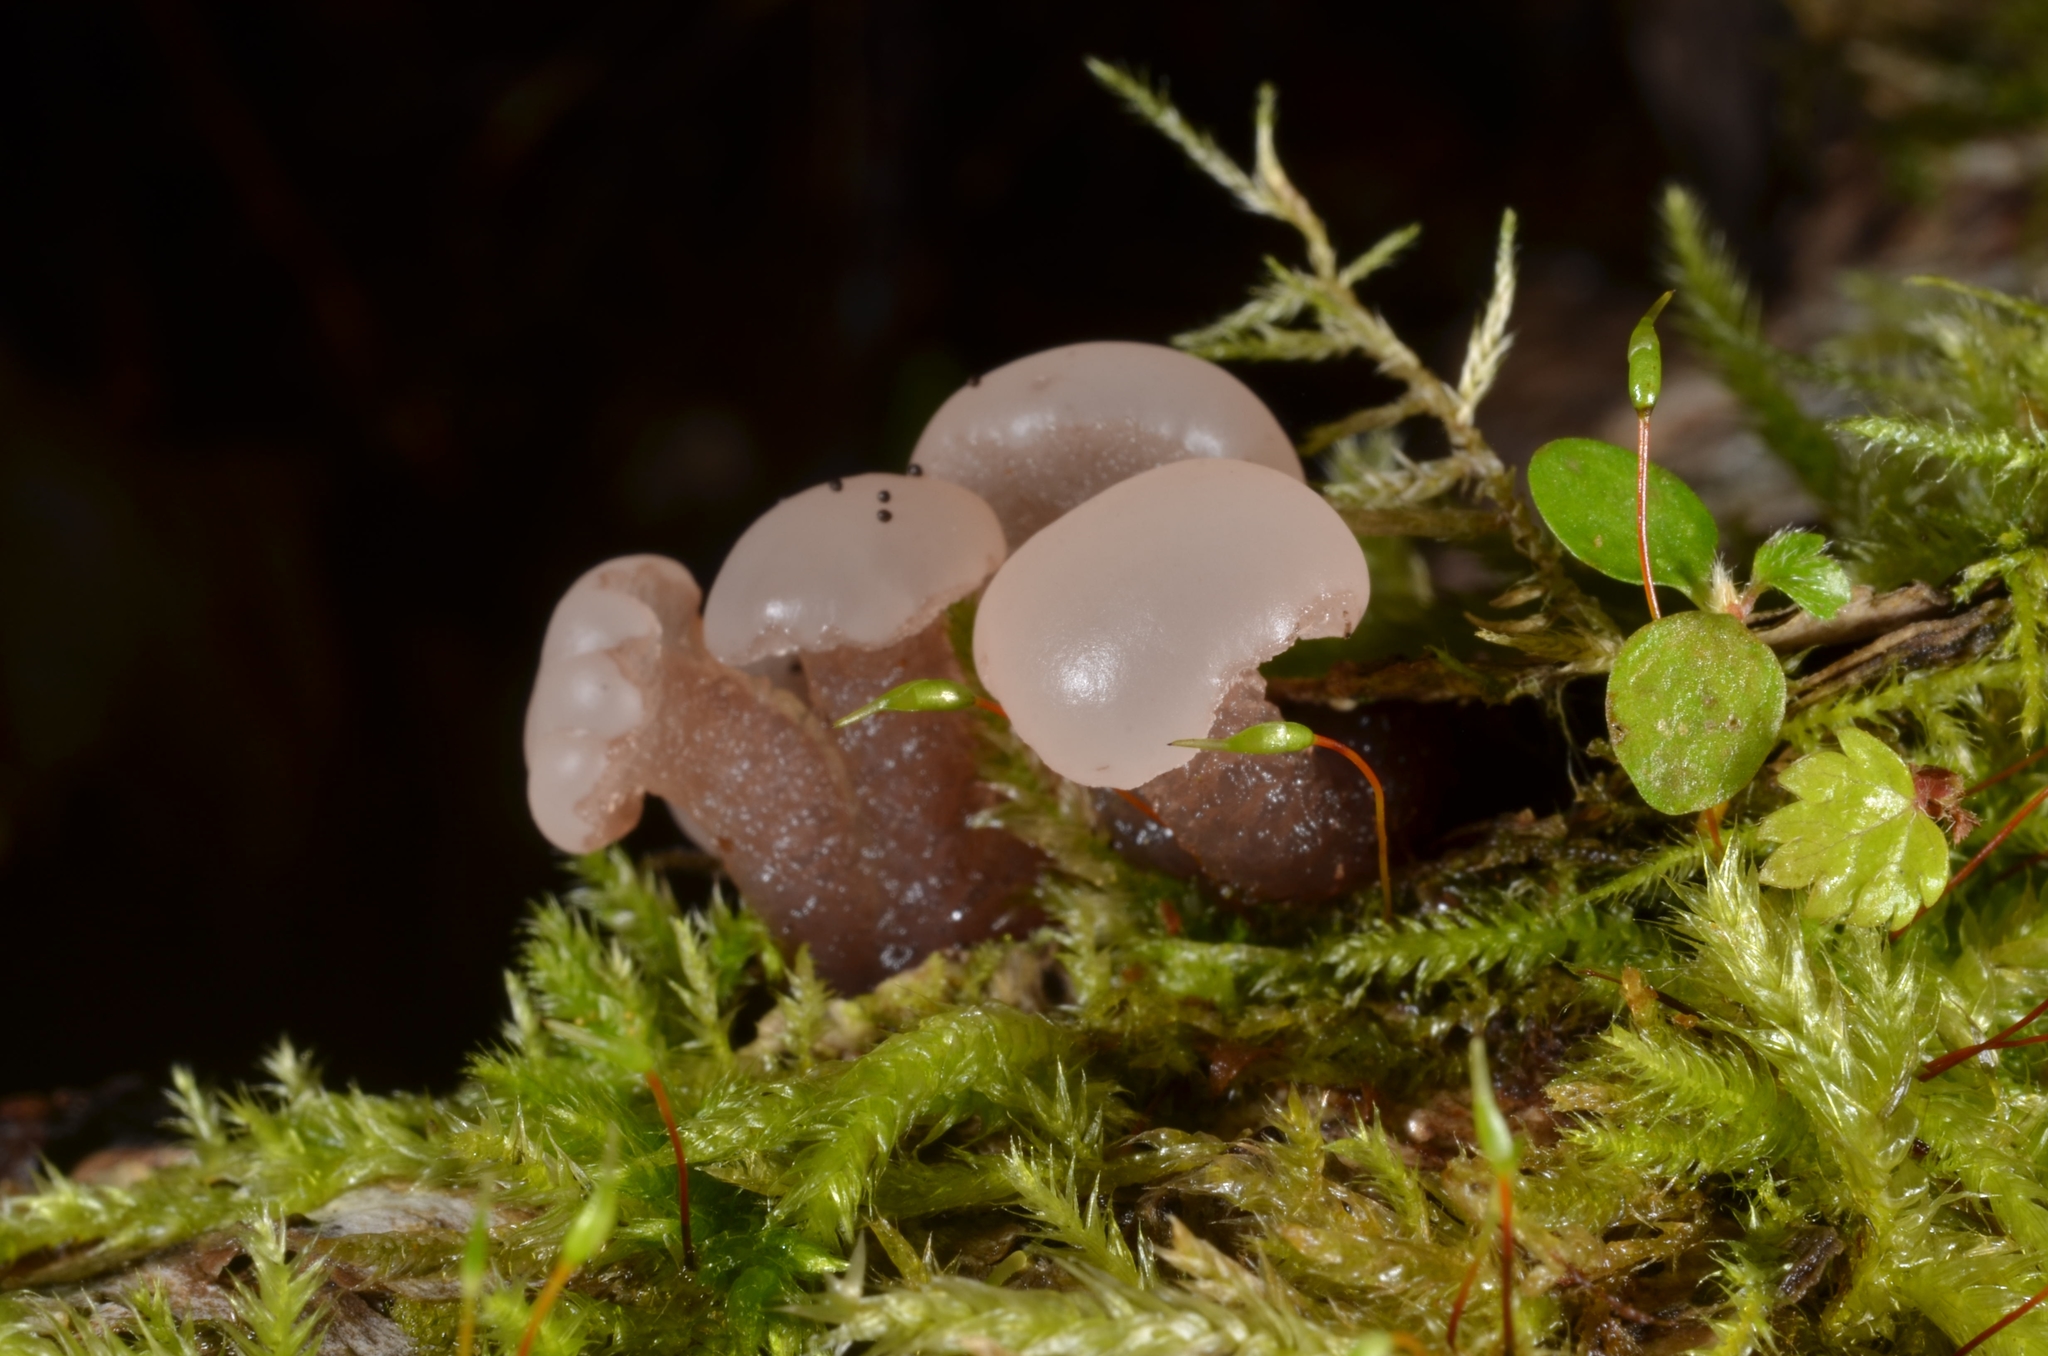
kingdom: Fungi
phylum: Ascomycota
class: Leotiomycetes
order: Helotiales
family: Bryoglossaceae
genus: Neocudoniella
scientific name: Neocudoniella albiceps
